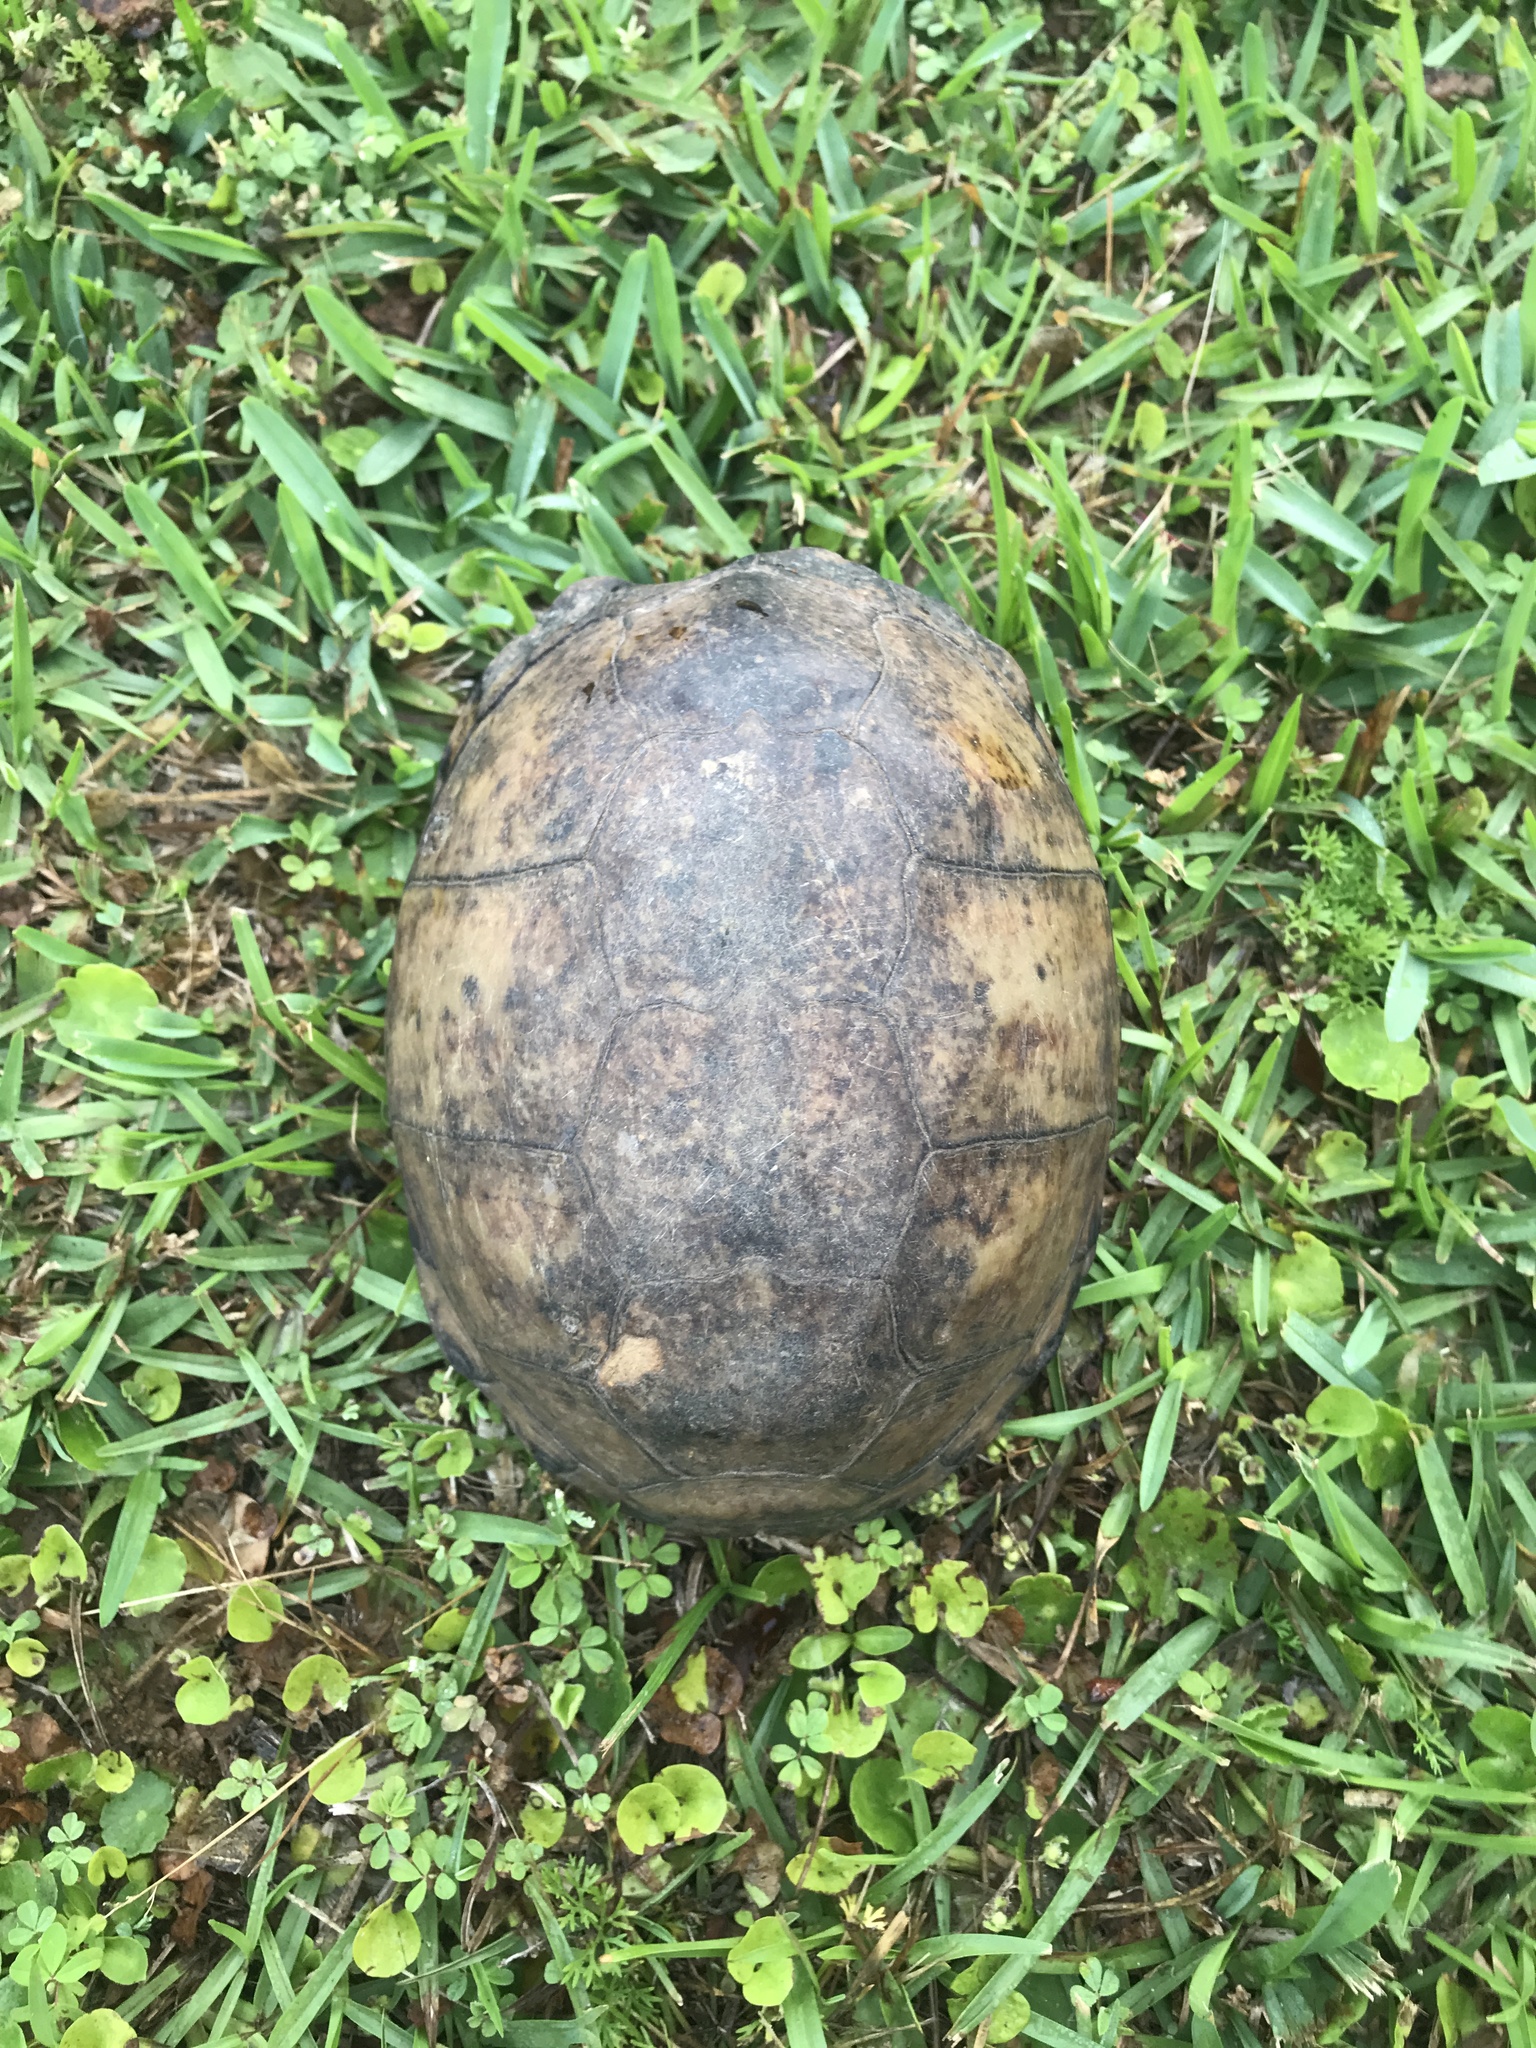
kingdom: Animalia
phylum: Chordata
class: Testudines
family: Emydidae
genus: Terrapene
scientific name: Terrapene carolina
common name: Common box turtle
